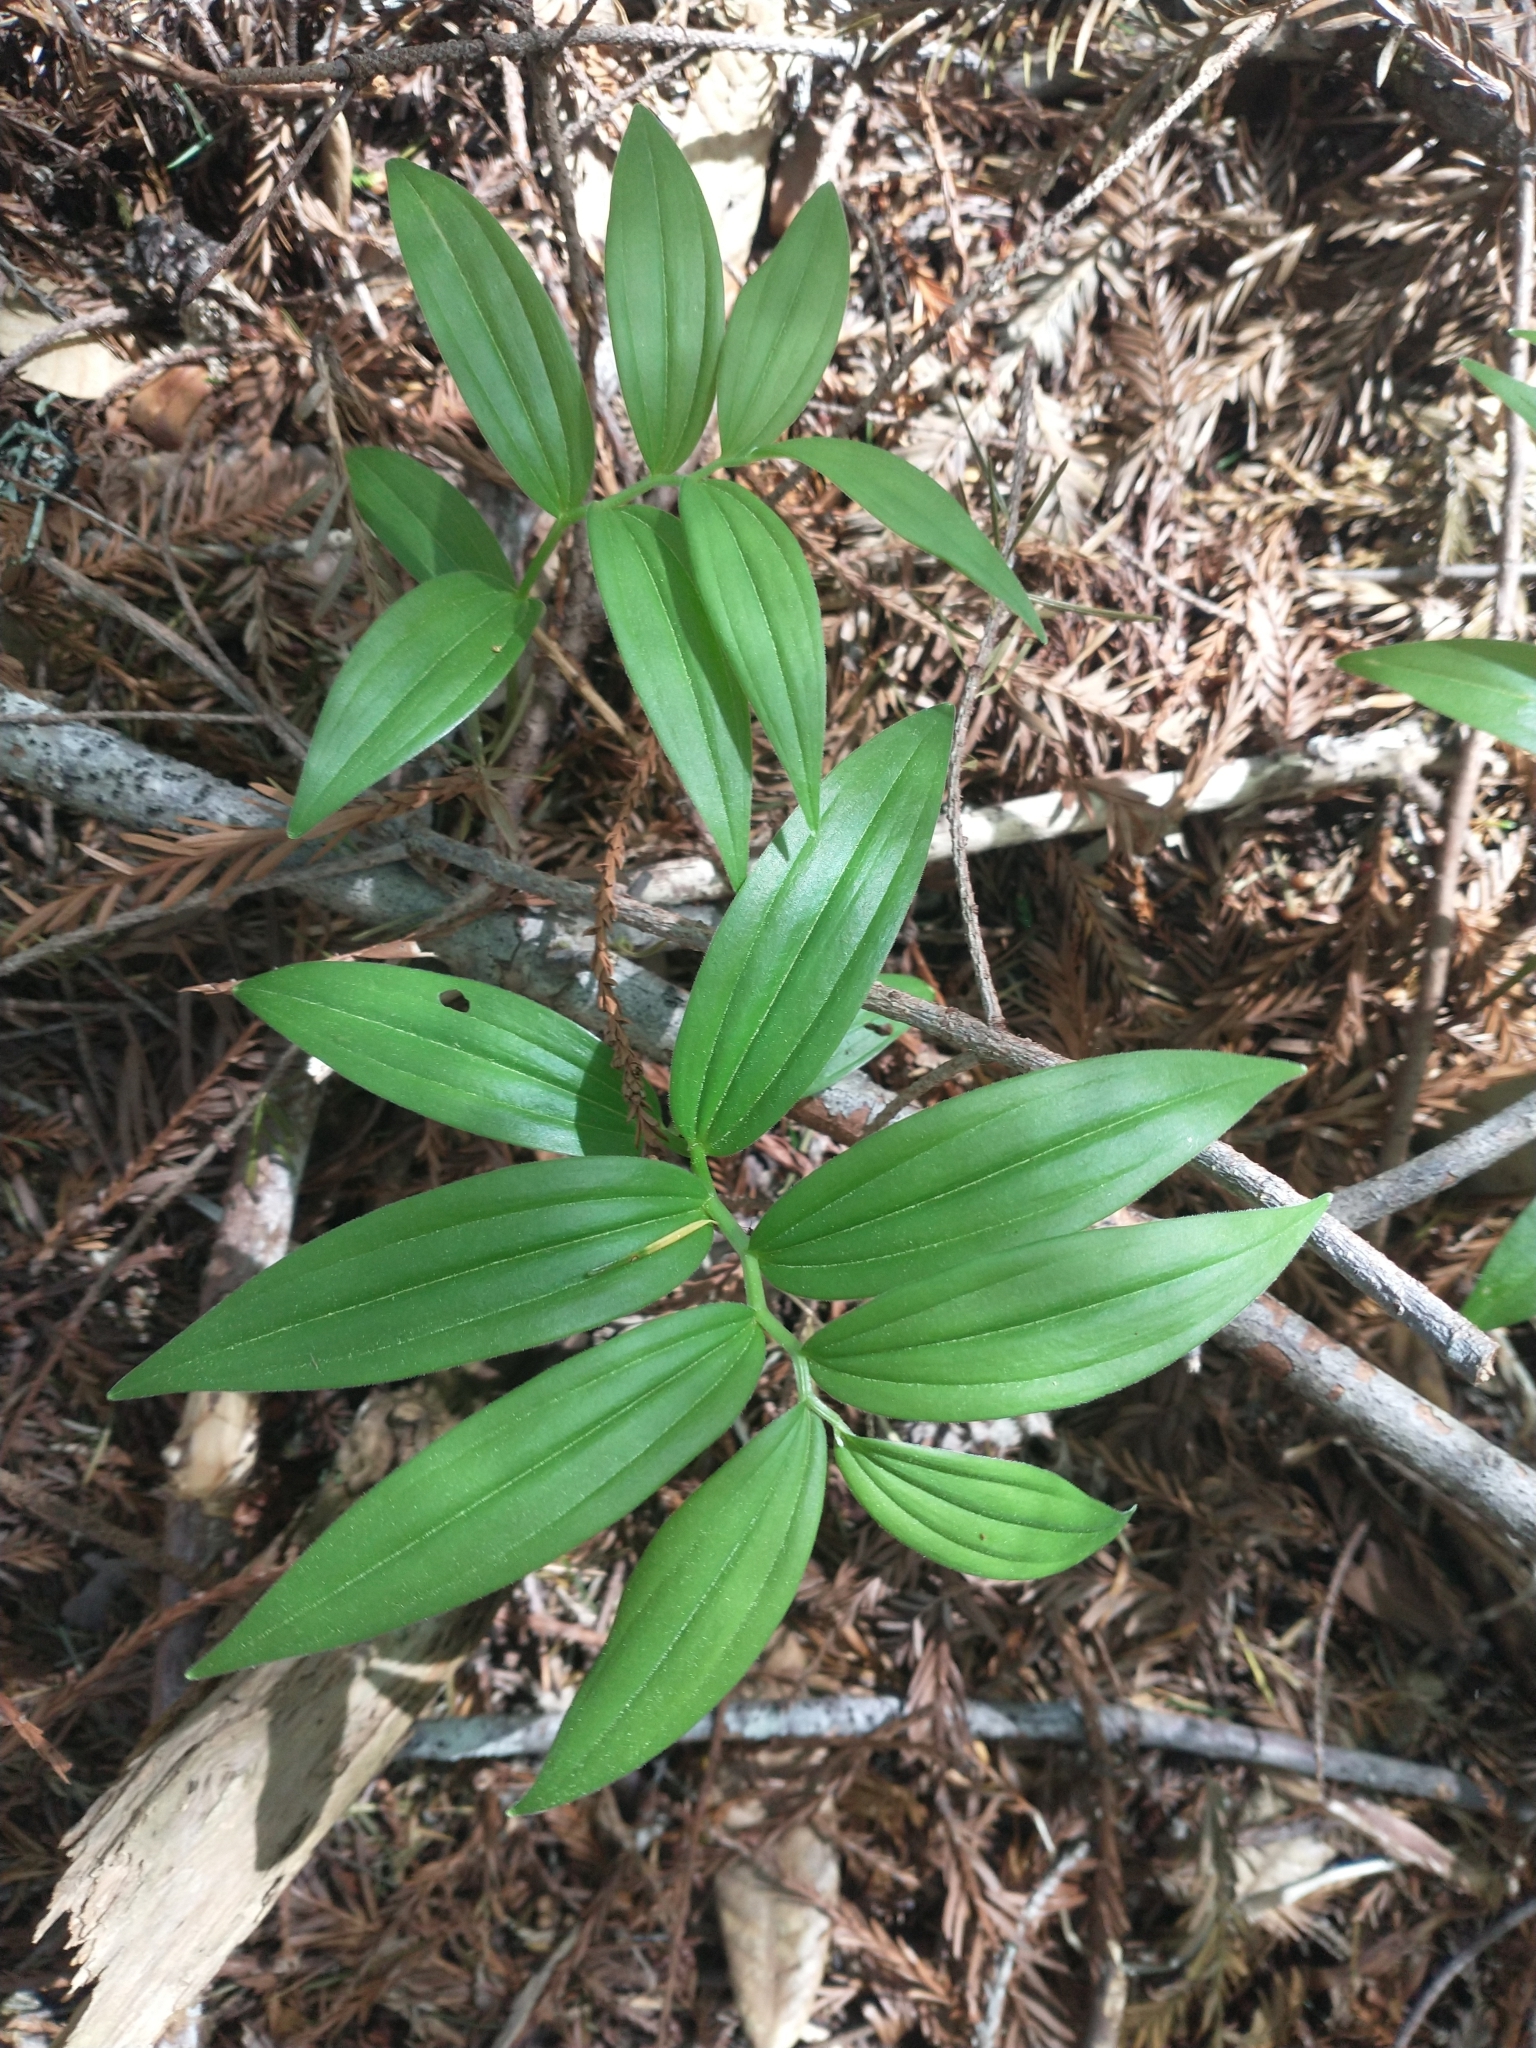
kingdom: Plantae
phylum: Tracheophyta
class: Liliopsida
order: Asparagales
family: Asparagaceae
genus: Maianthemum
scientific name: Maianthemum stellatum
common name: Little false solomon's seal
